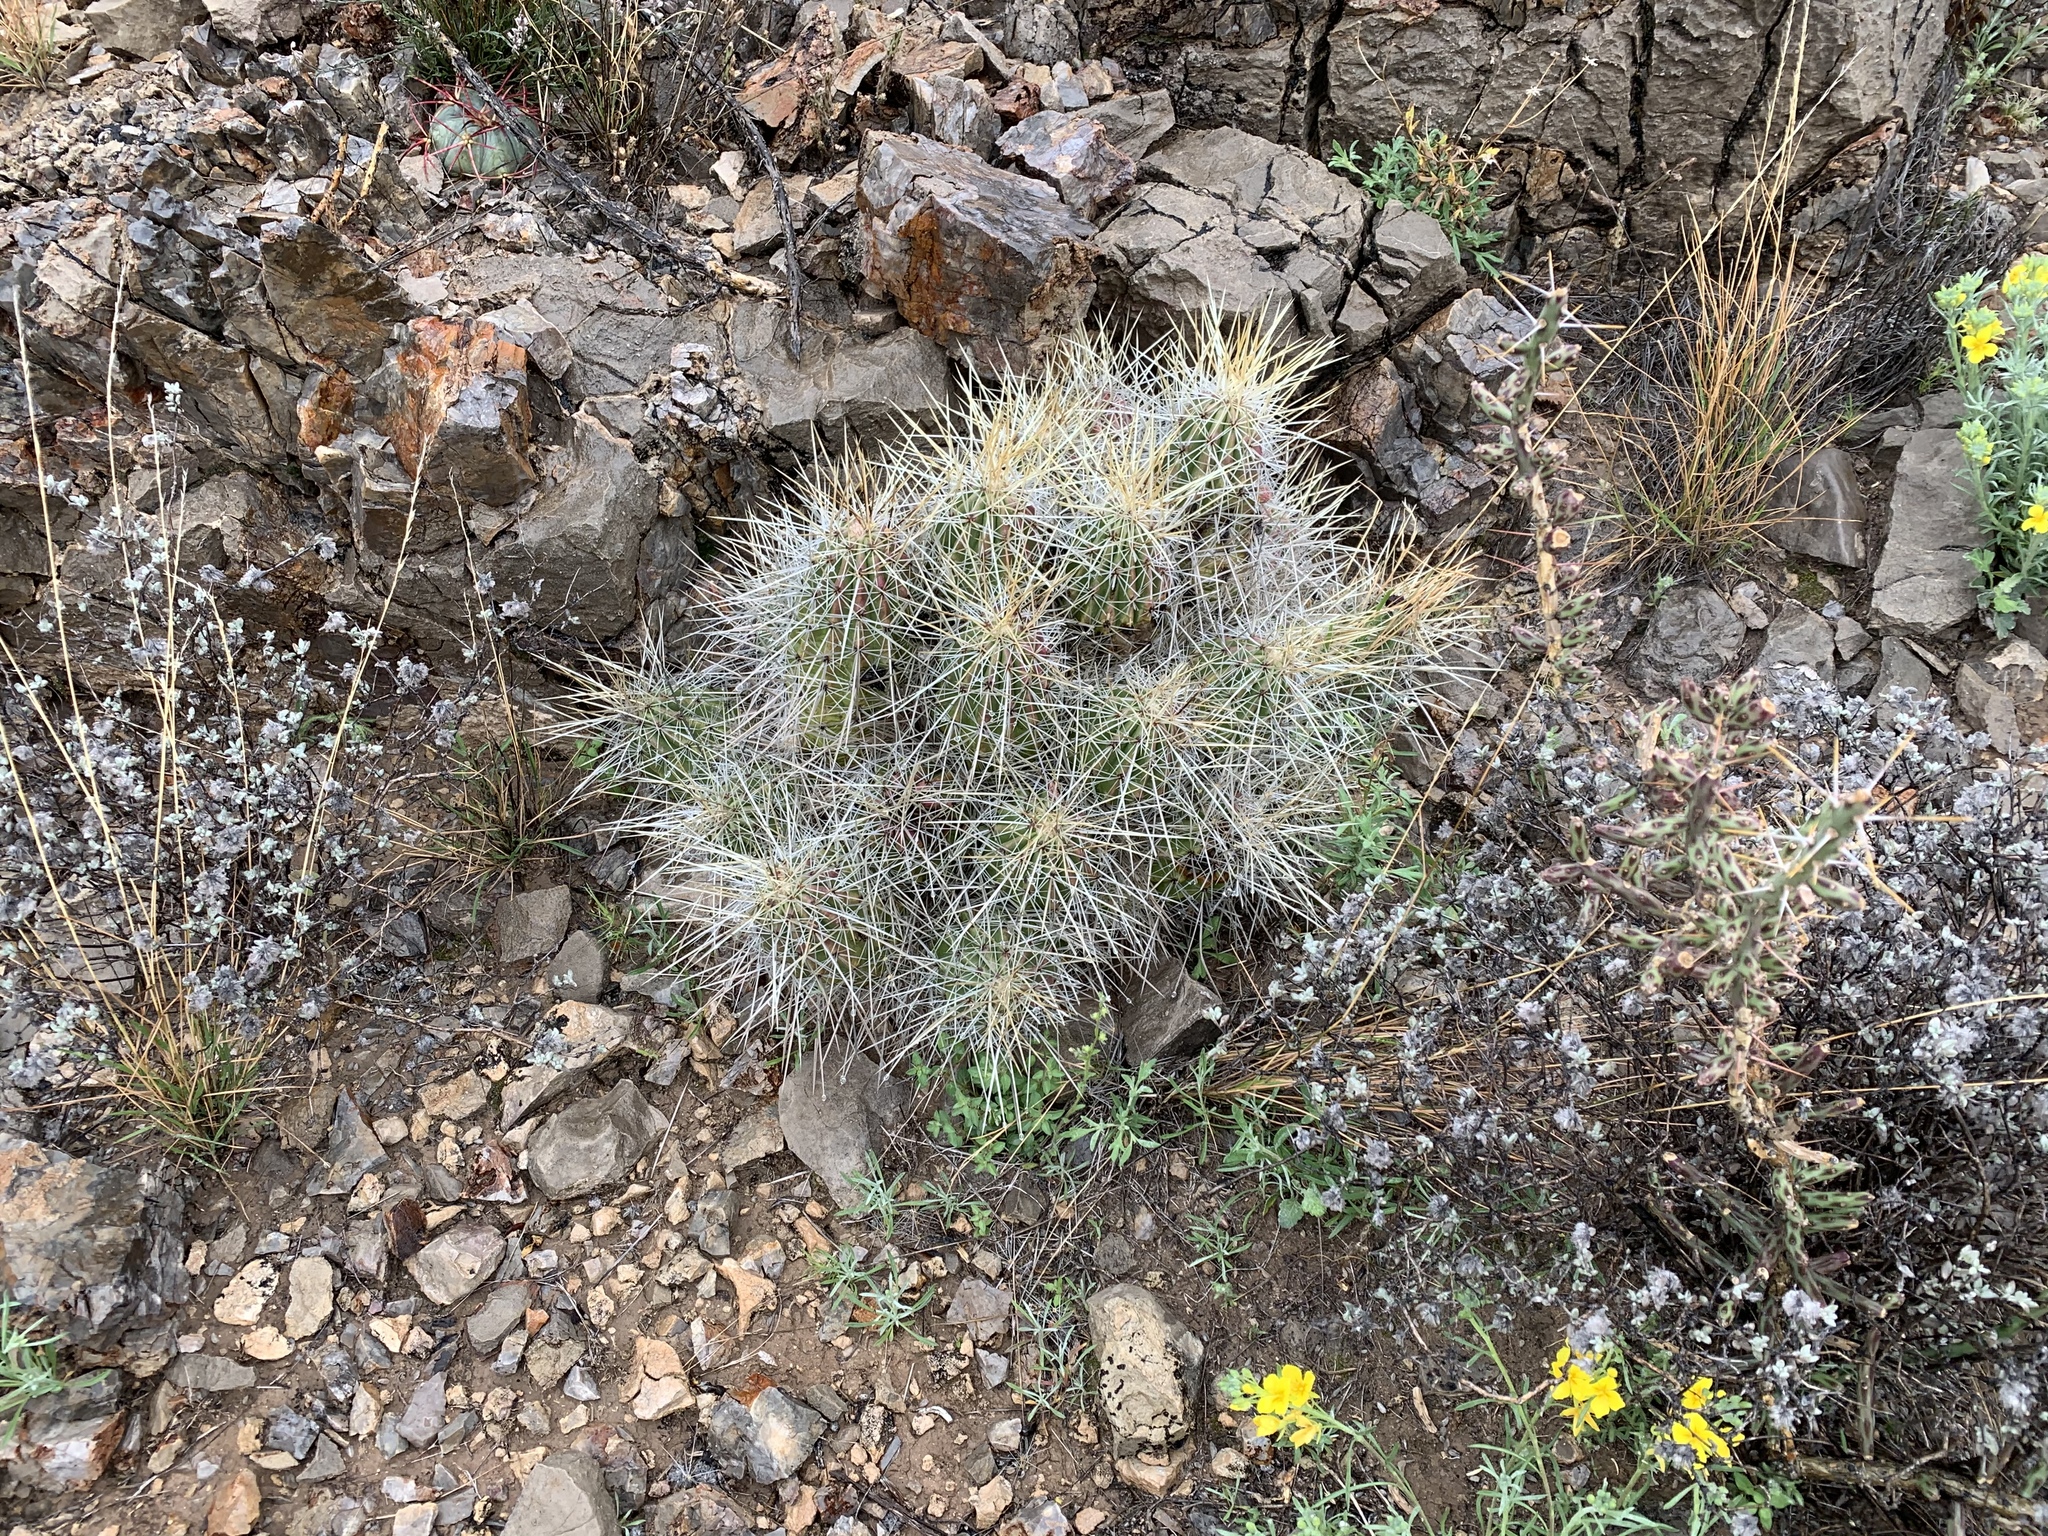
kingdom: Plantae
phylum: Tracheophyta
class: Magnoliopsida
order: Caryophyllales
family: Cactaceae
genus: Echinocereus
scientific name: Echinocereus stramineus
